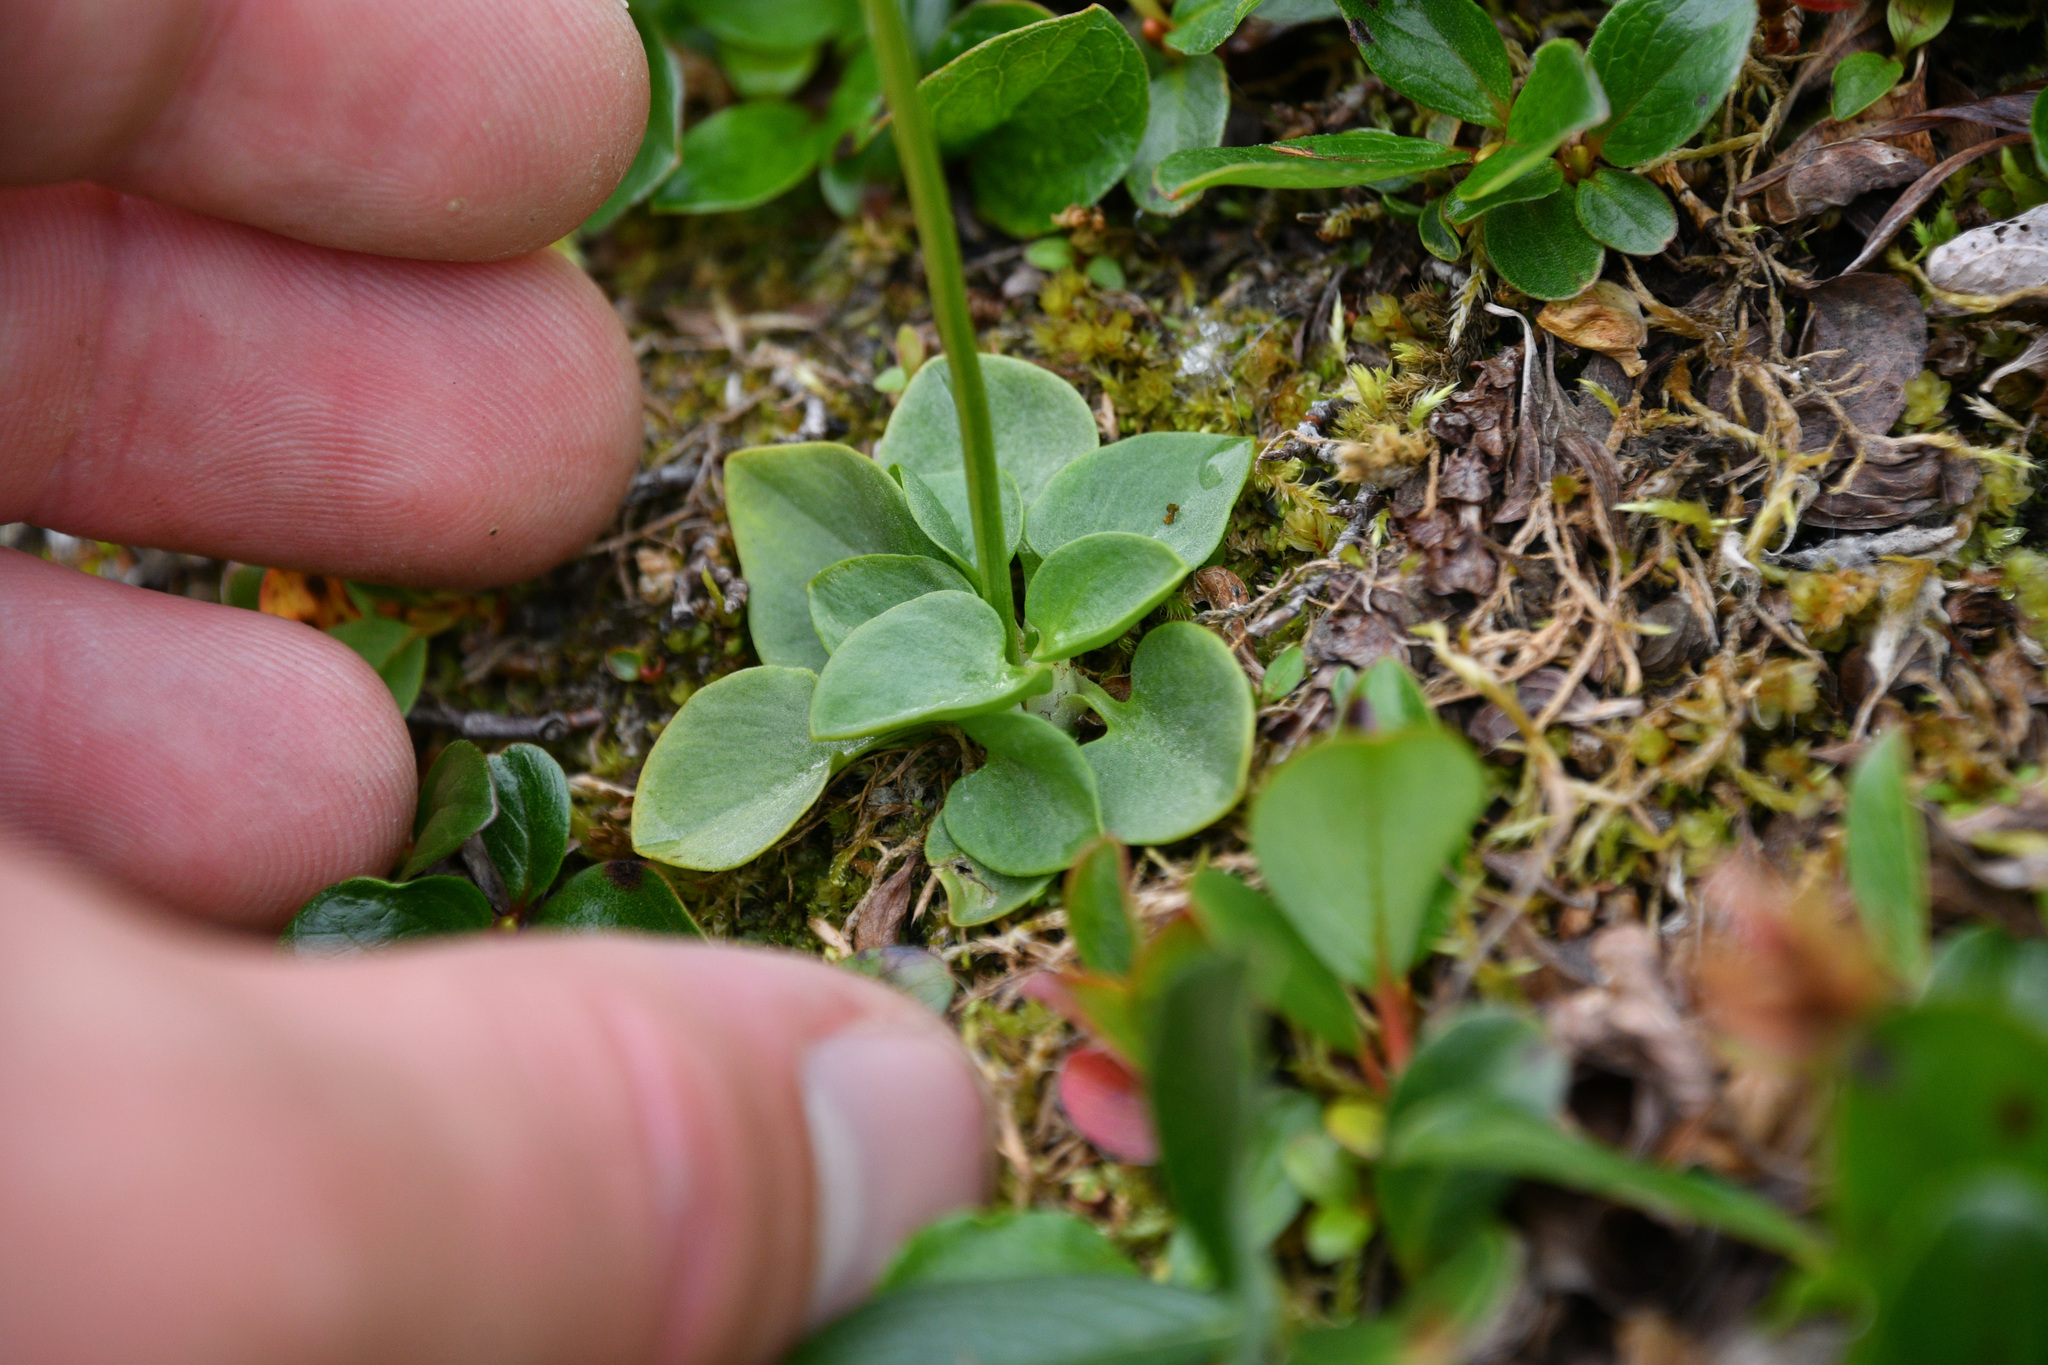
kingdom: Plantae
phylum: Tracheophyta
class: Magnoliopsida
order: Celastrales
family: Parnassiaceae
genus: Parnassia
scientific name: Parnassia kotzebuei
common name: Kotzebue's grass-of-parnassus
